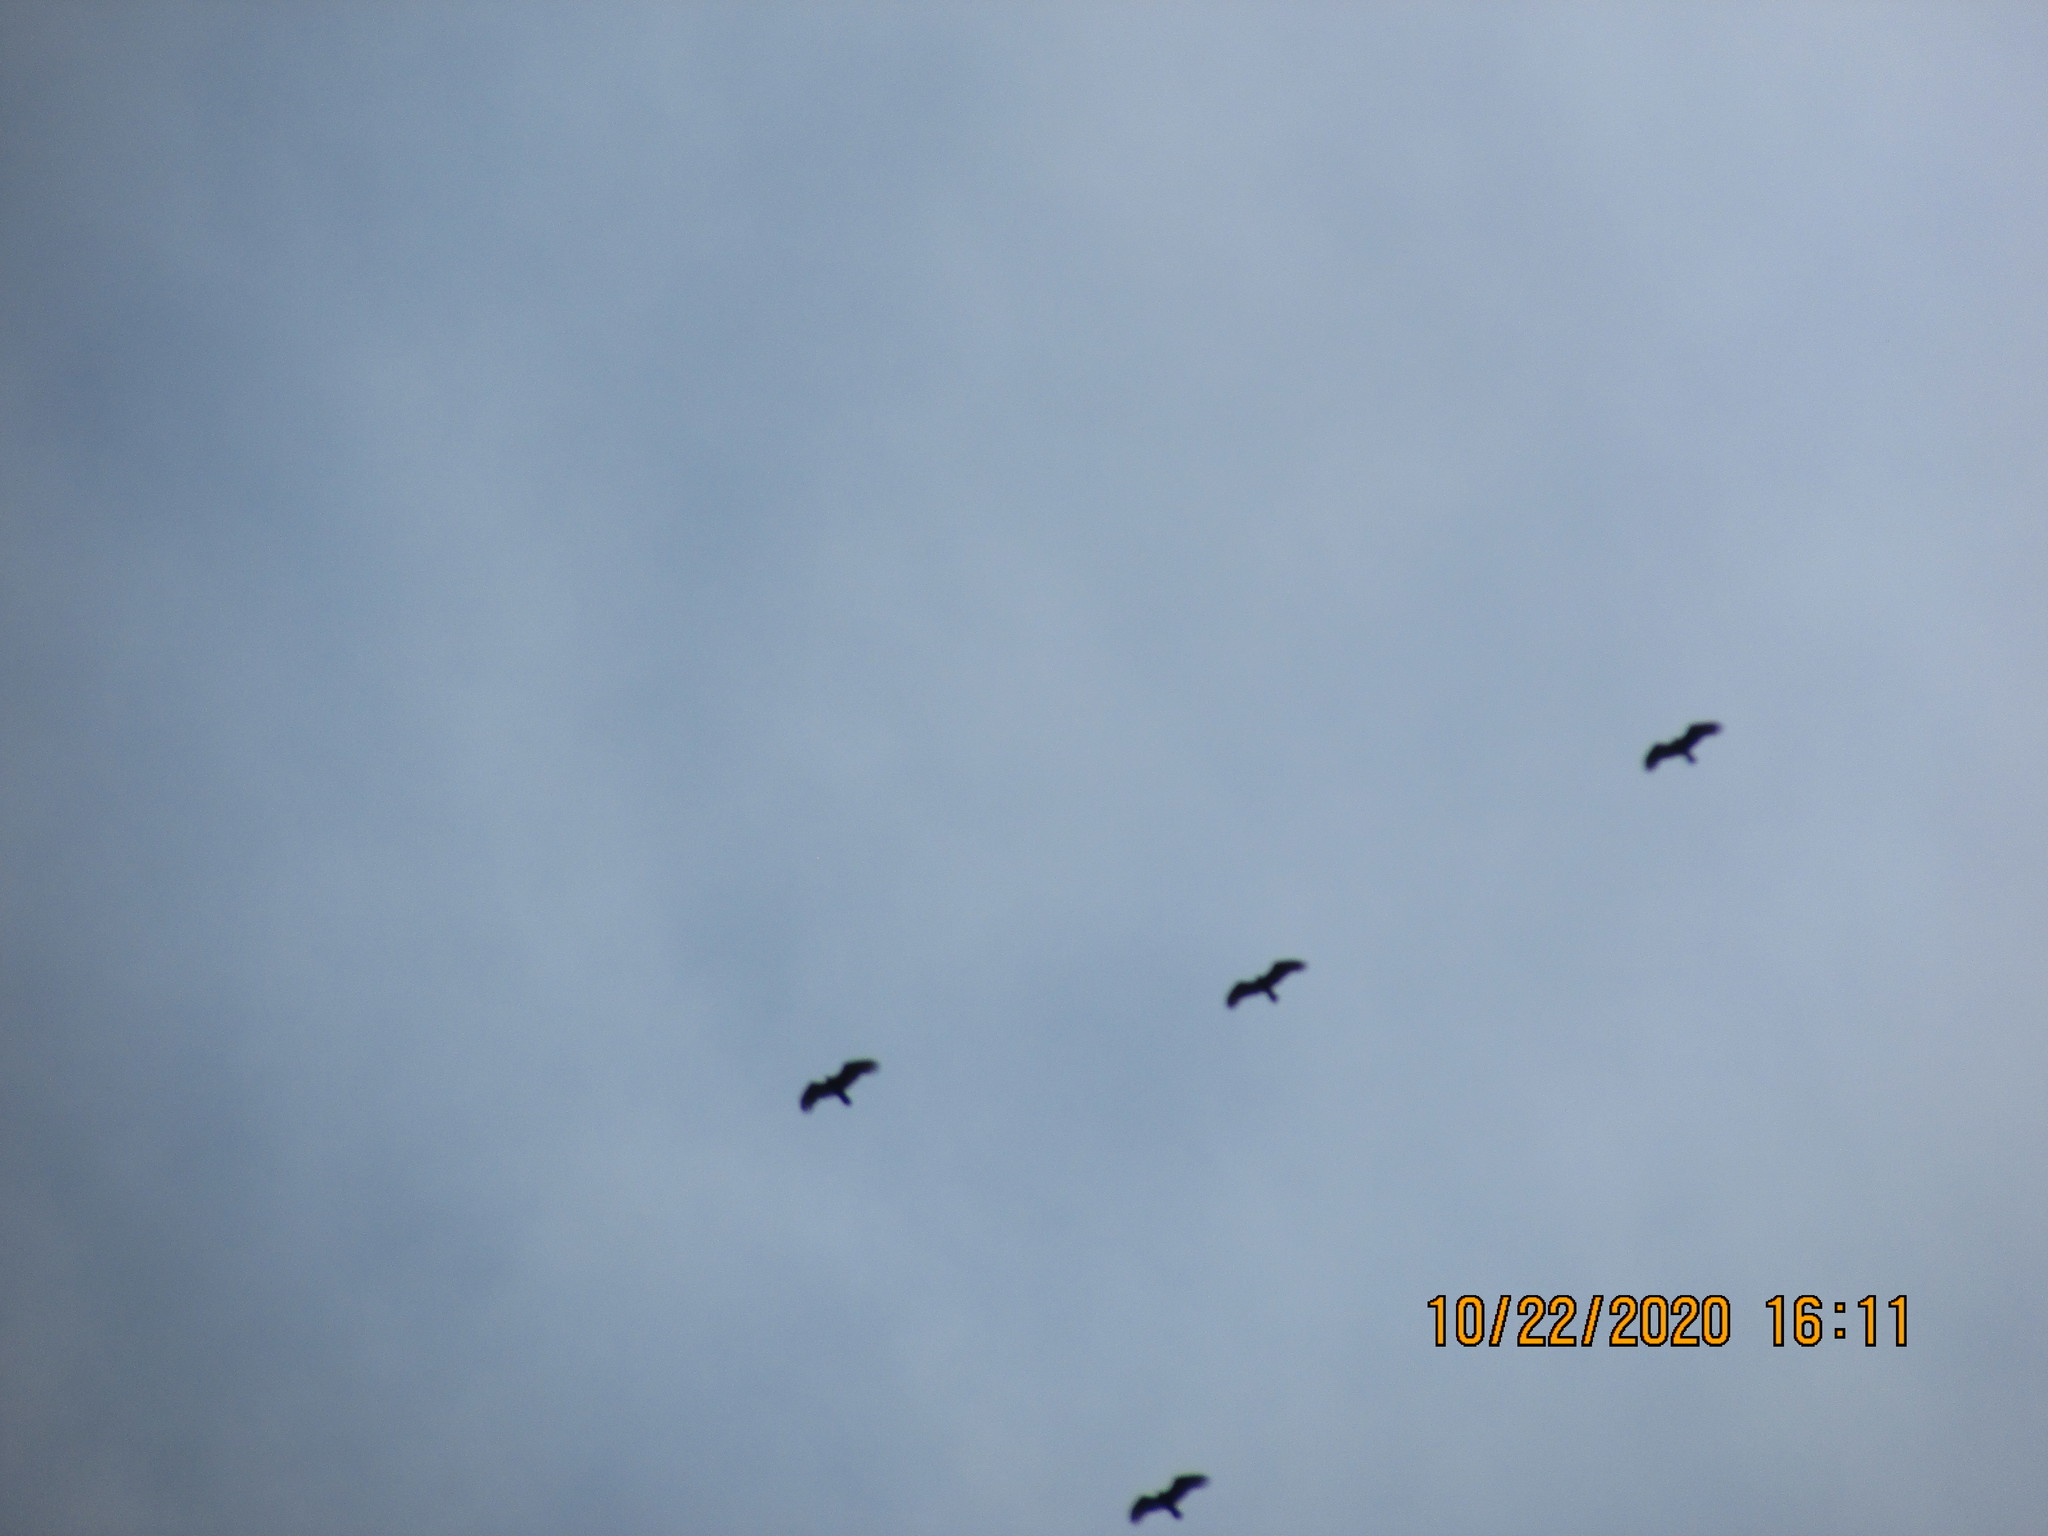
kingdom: Animalia
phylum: Chordata
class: Aves
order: Accipitriformes
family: Cathartidae
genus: Cathartes
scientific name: Cathartes aura
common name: Turkey vulture
